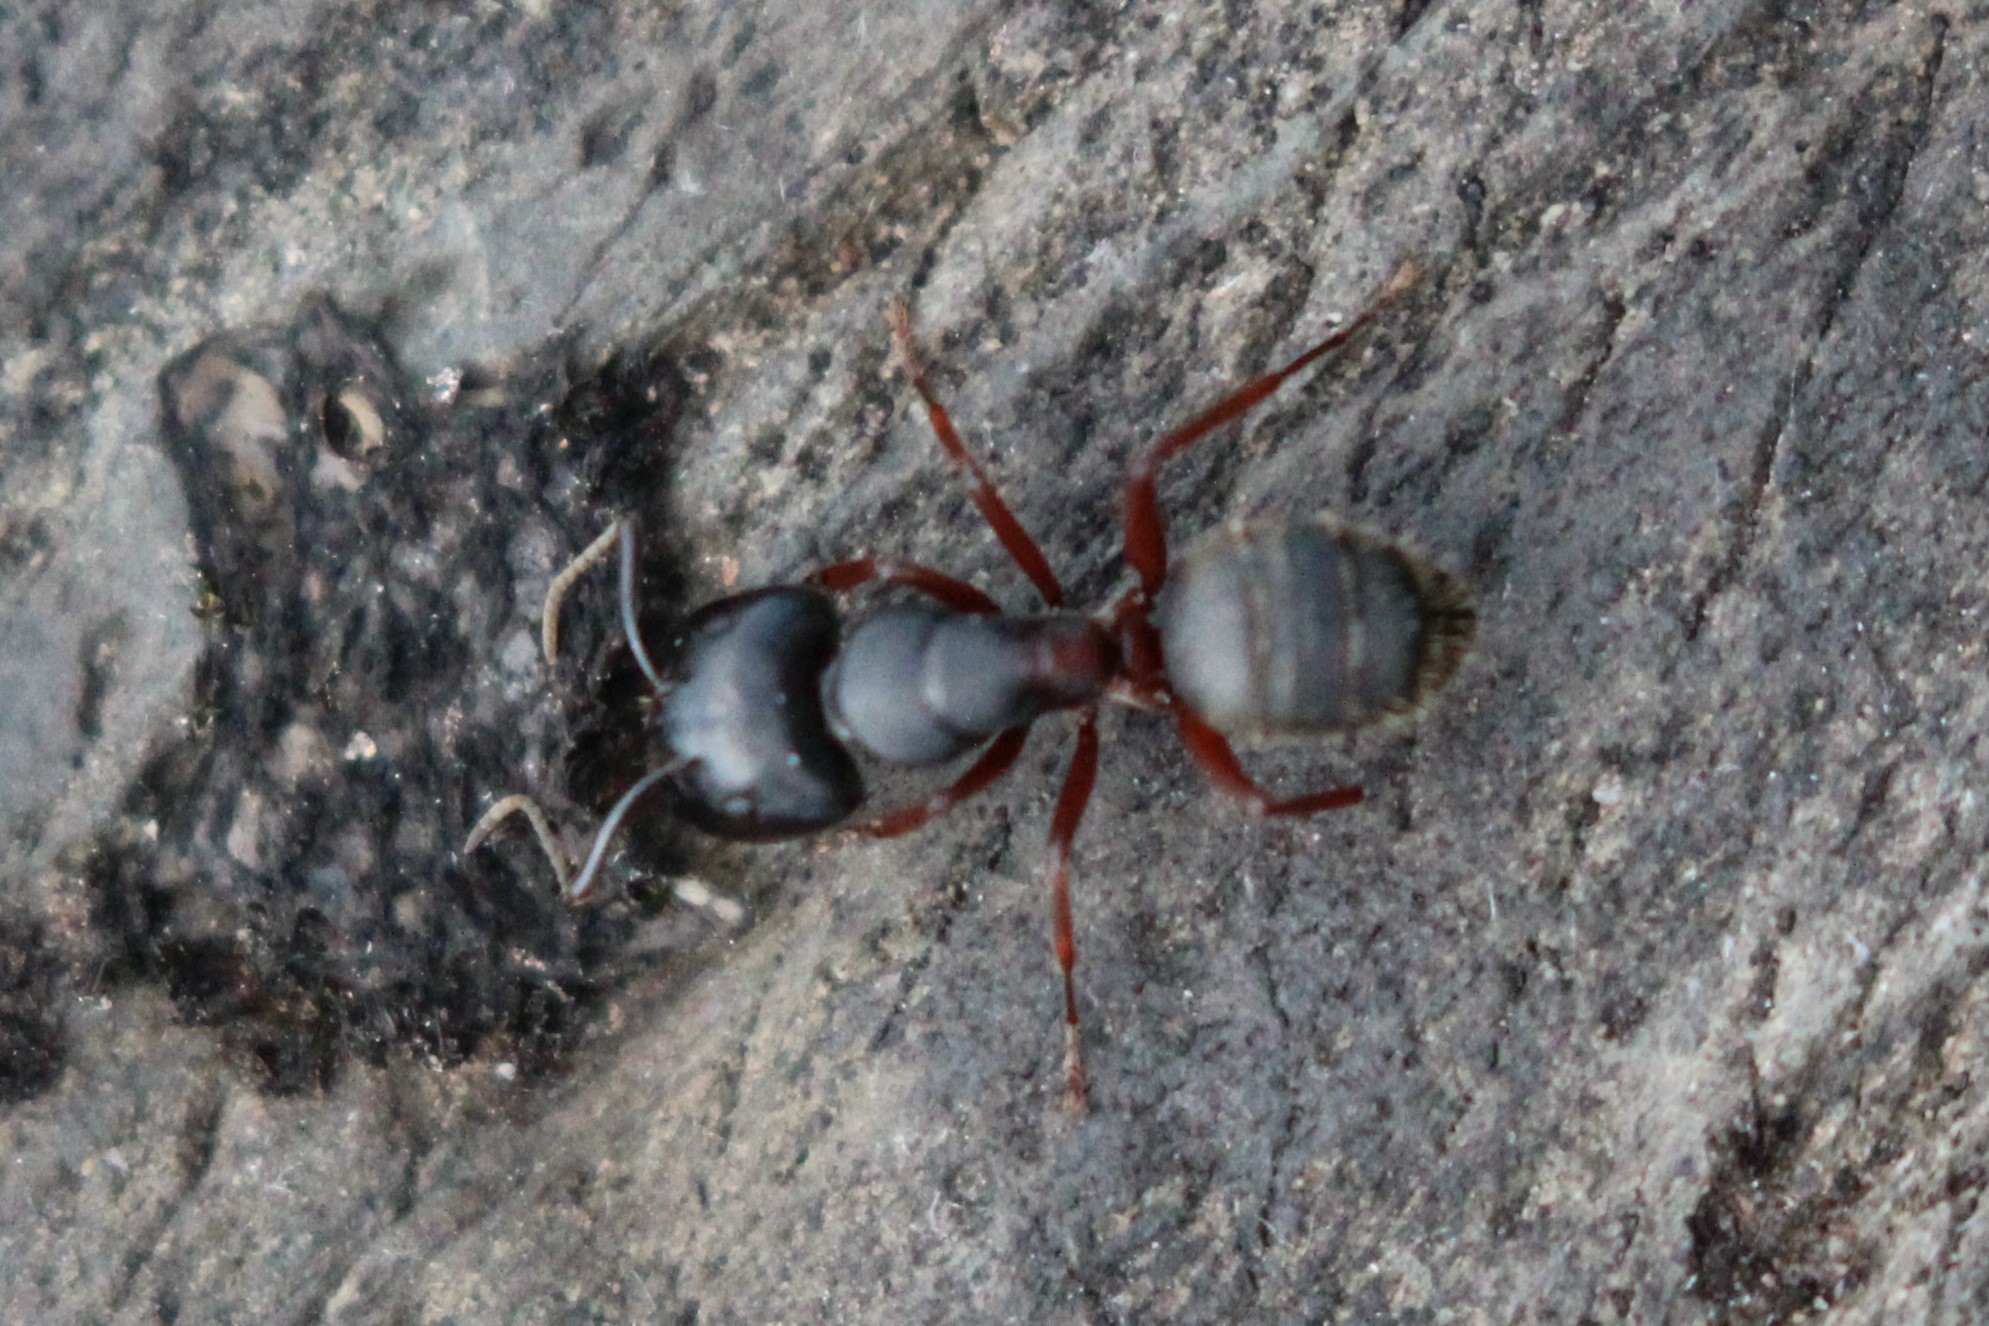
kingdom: Animalia
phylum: Arthropoda
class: Insecta
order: Hymenoptera
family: Formicidae
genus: Camponotus
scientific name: Camponotus herculeanus
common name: Hercules ant
